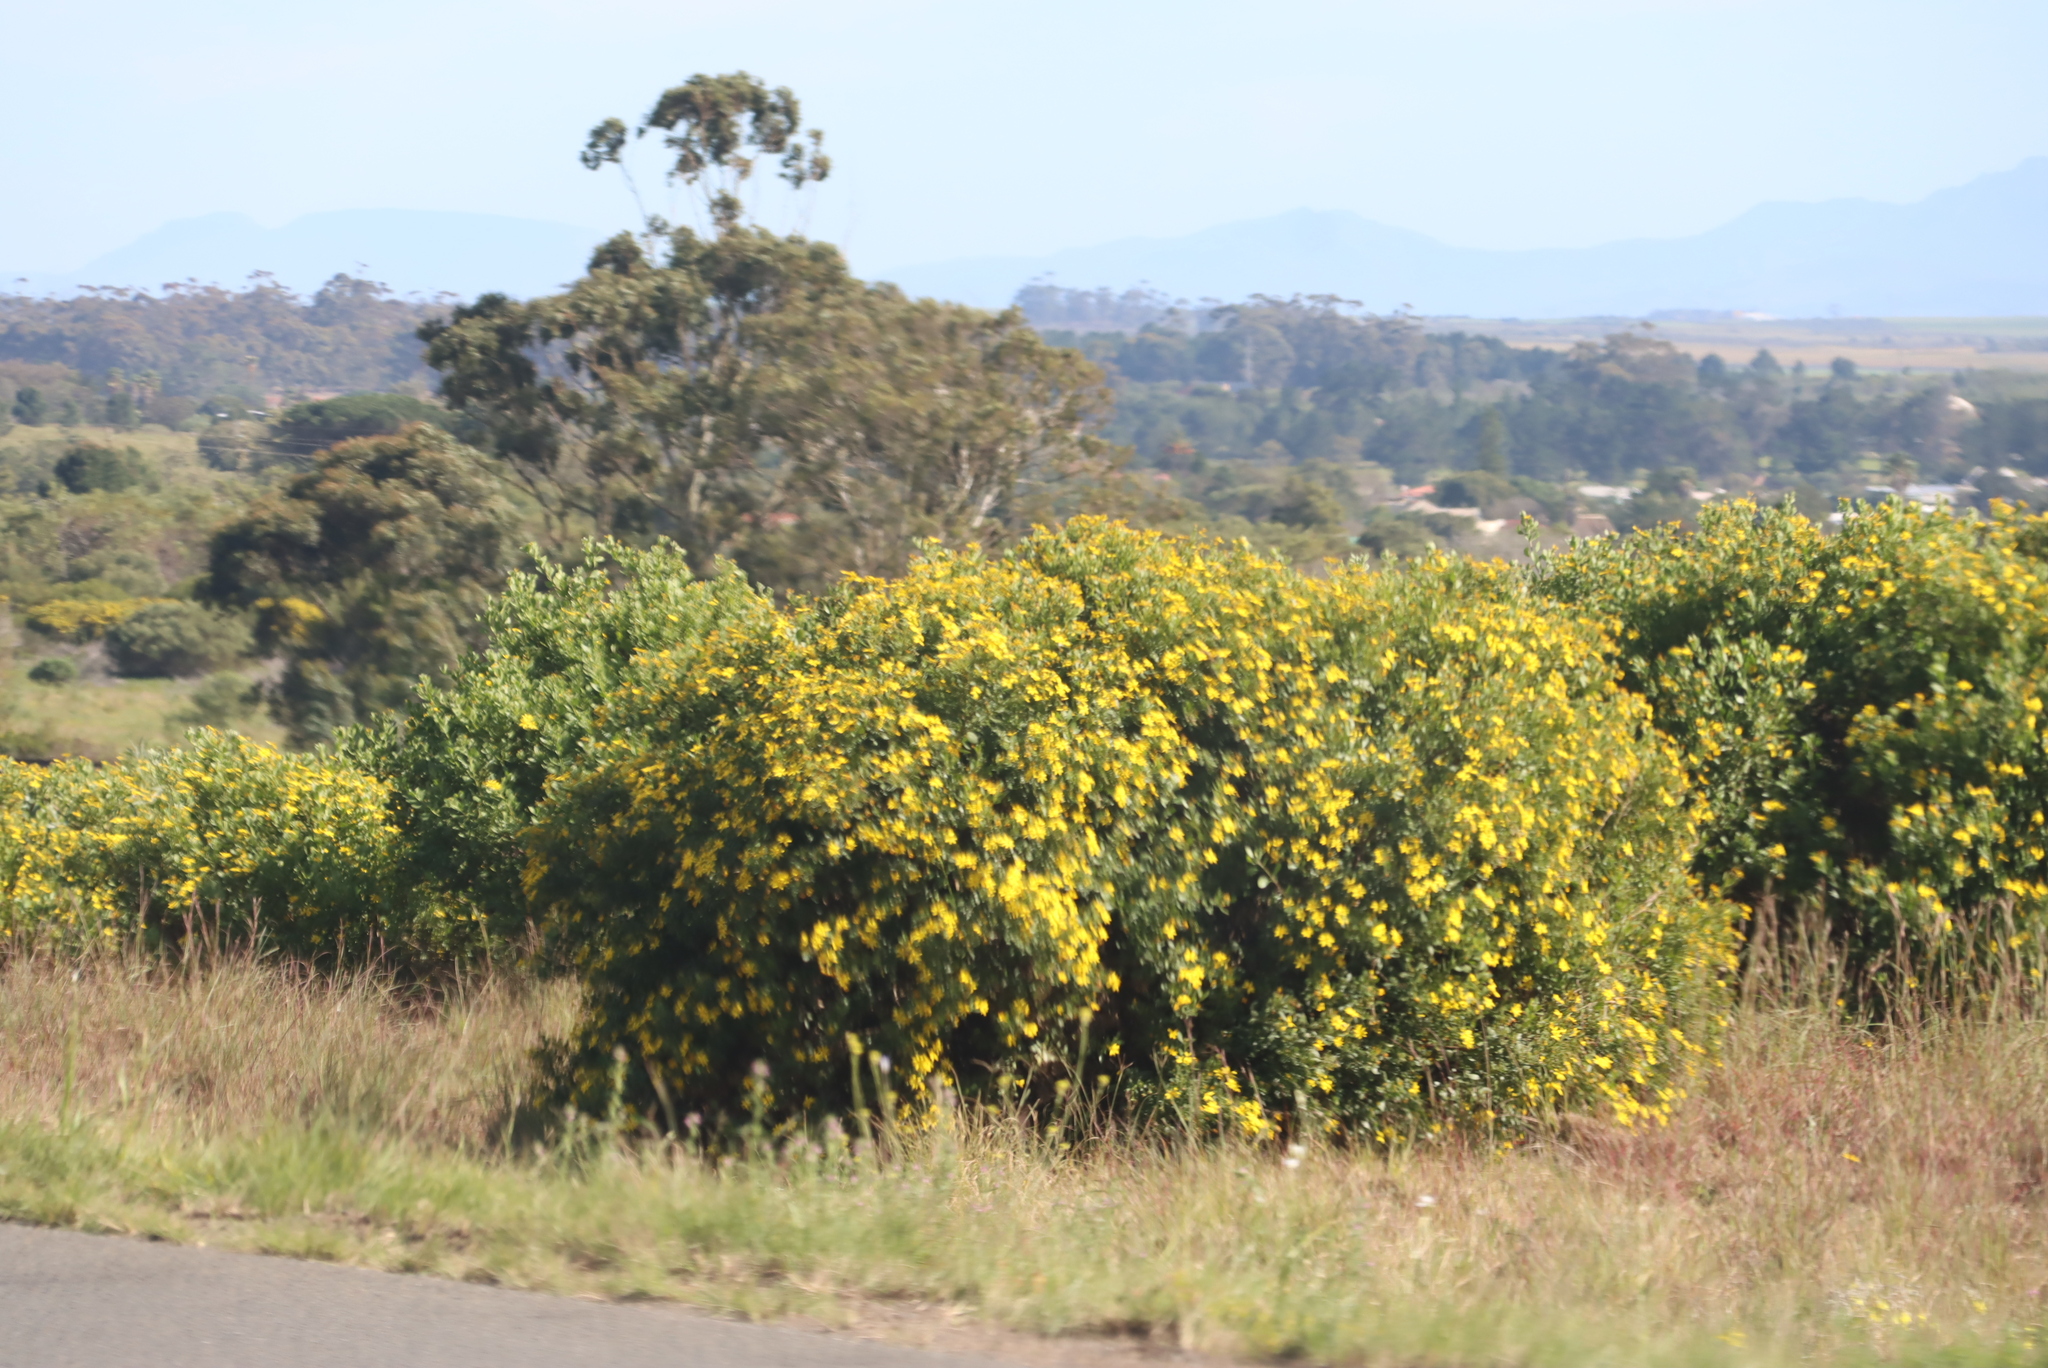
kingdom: Plantae
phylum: Tracheophyta
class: Magnoliopsida
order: Asterales
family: Asteraceae
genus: Osteospermum
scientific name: Osteospermum moniliferum
